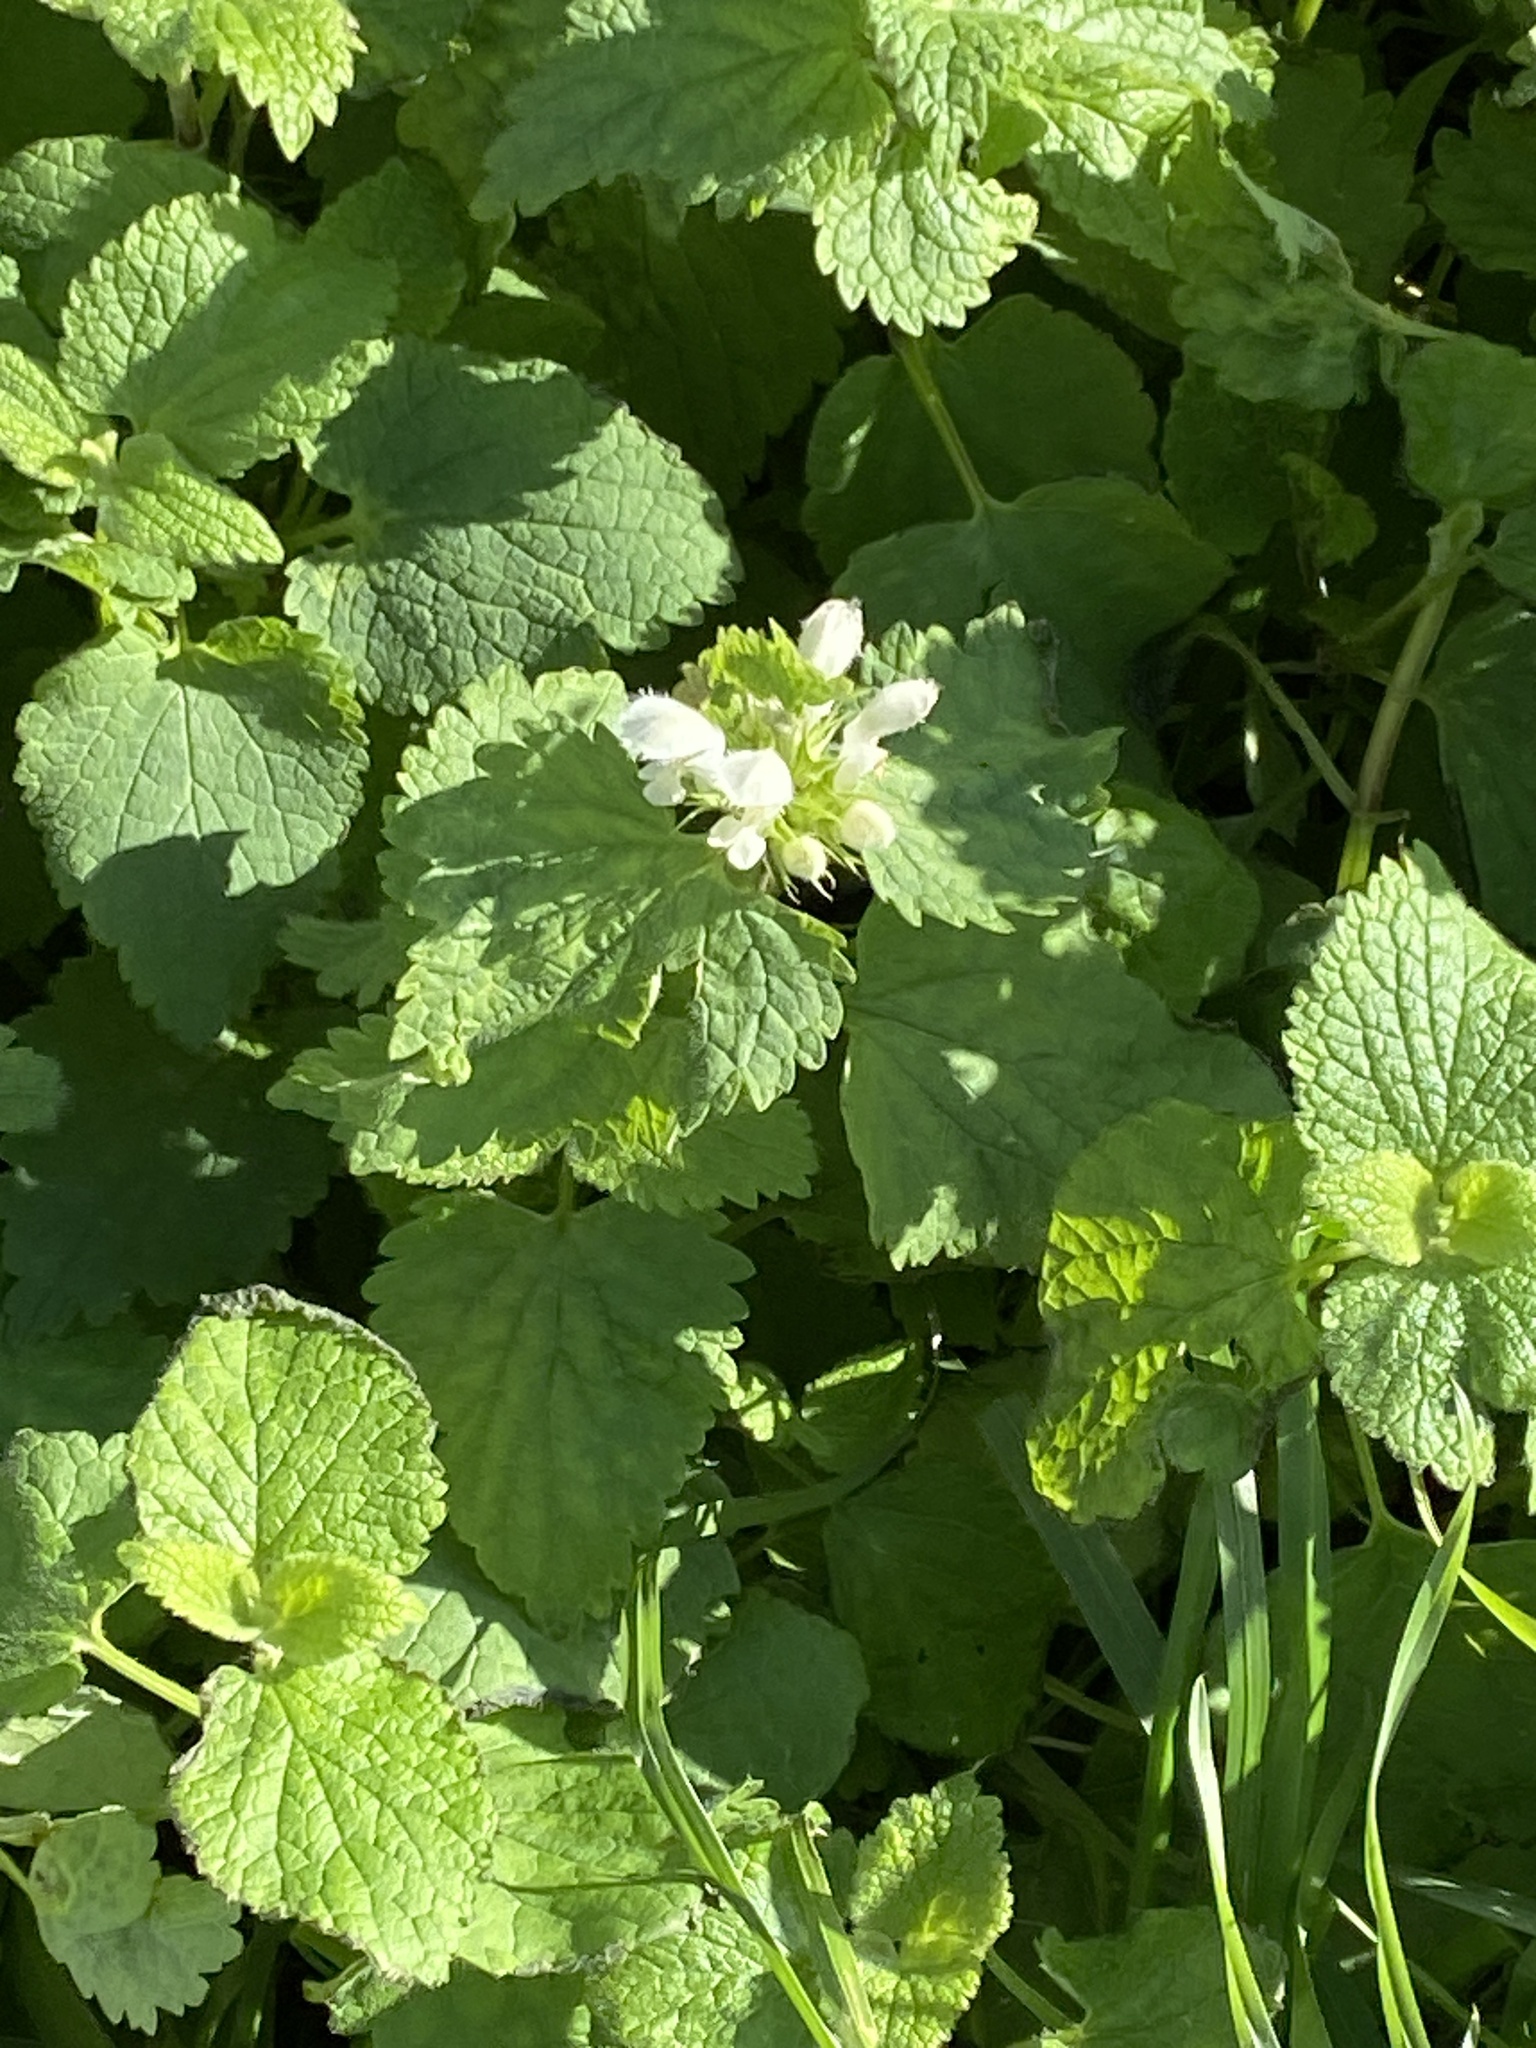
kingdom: Plantae
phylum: Tracheophyta
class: Magnoliopsida
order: Lamiales
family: Lamiaceae
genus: Lamium
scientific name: Lamium album
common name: White dead-nettle
